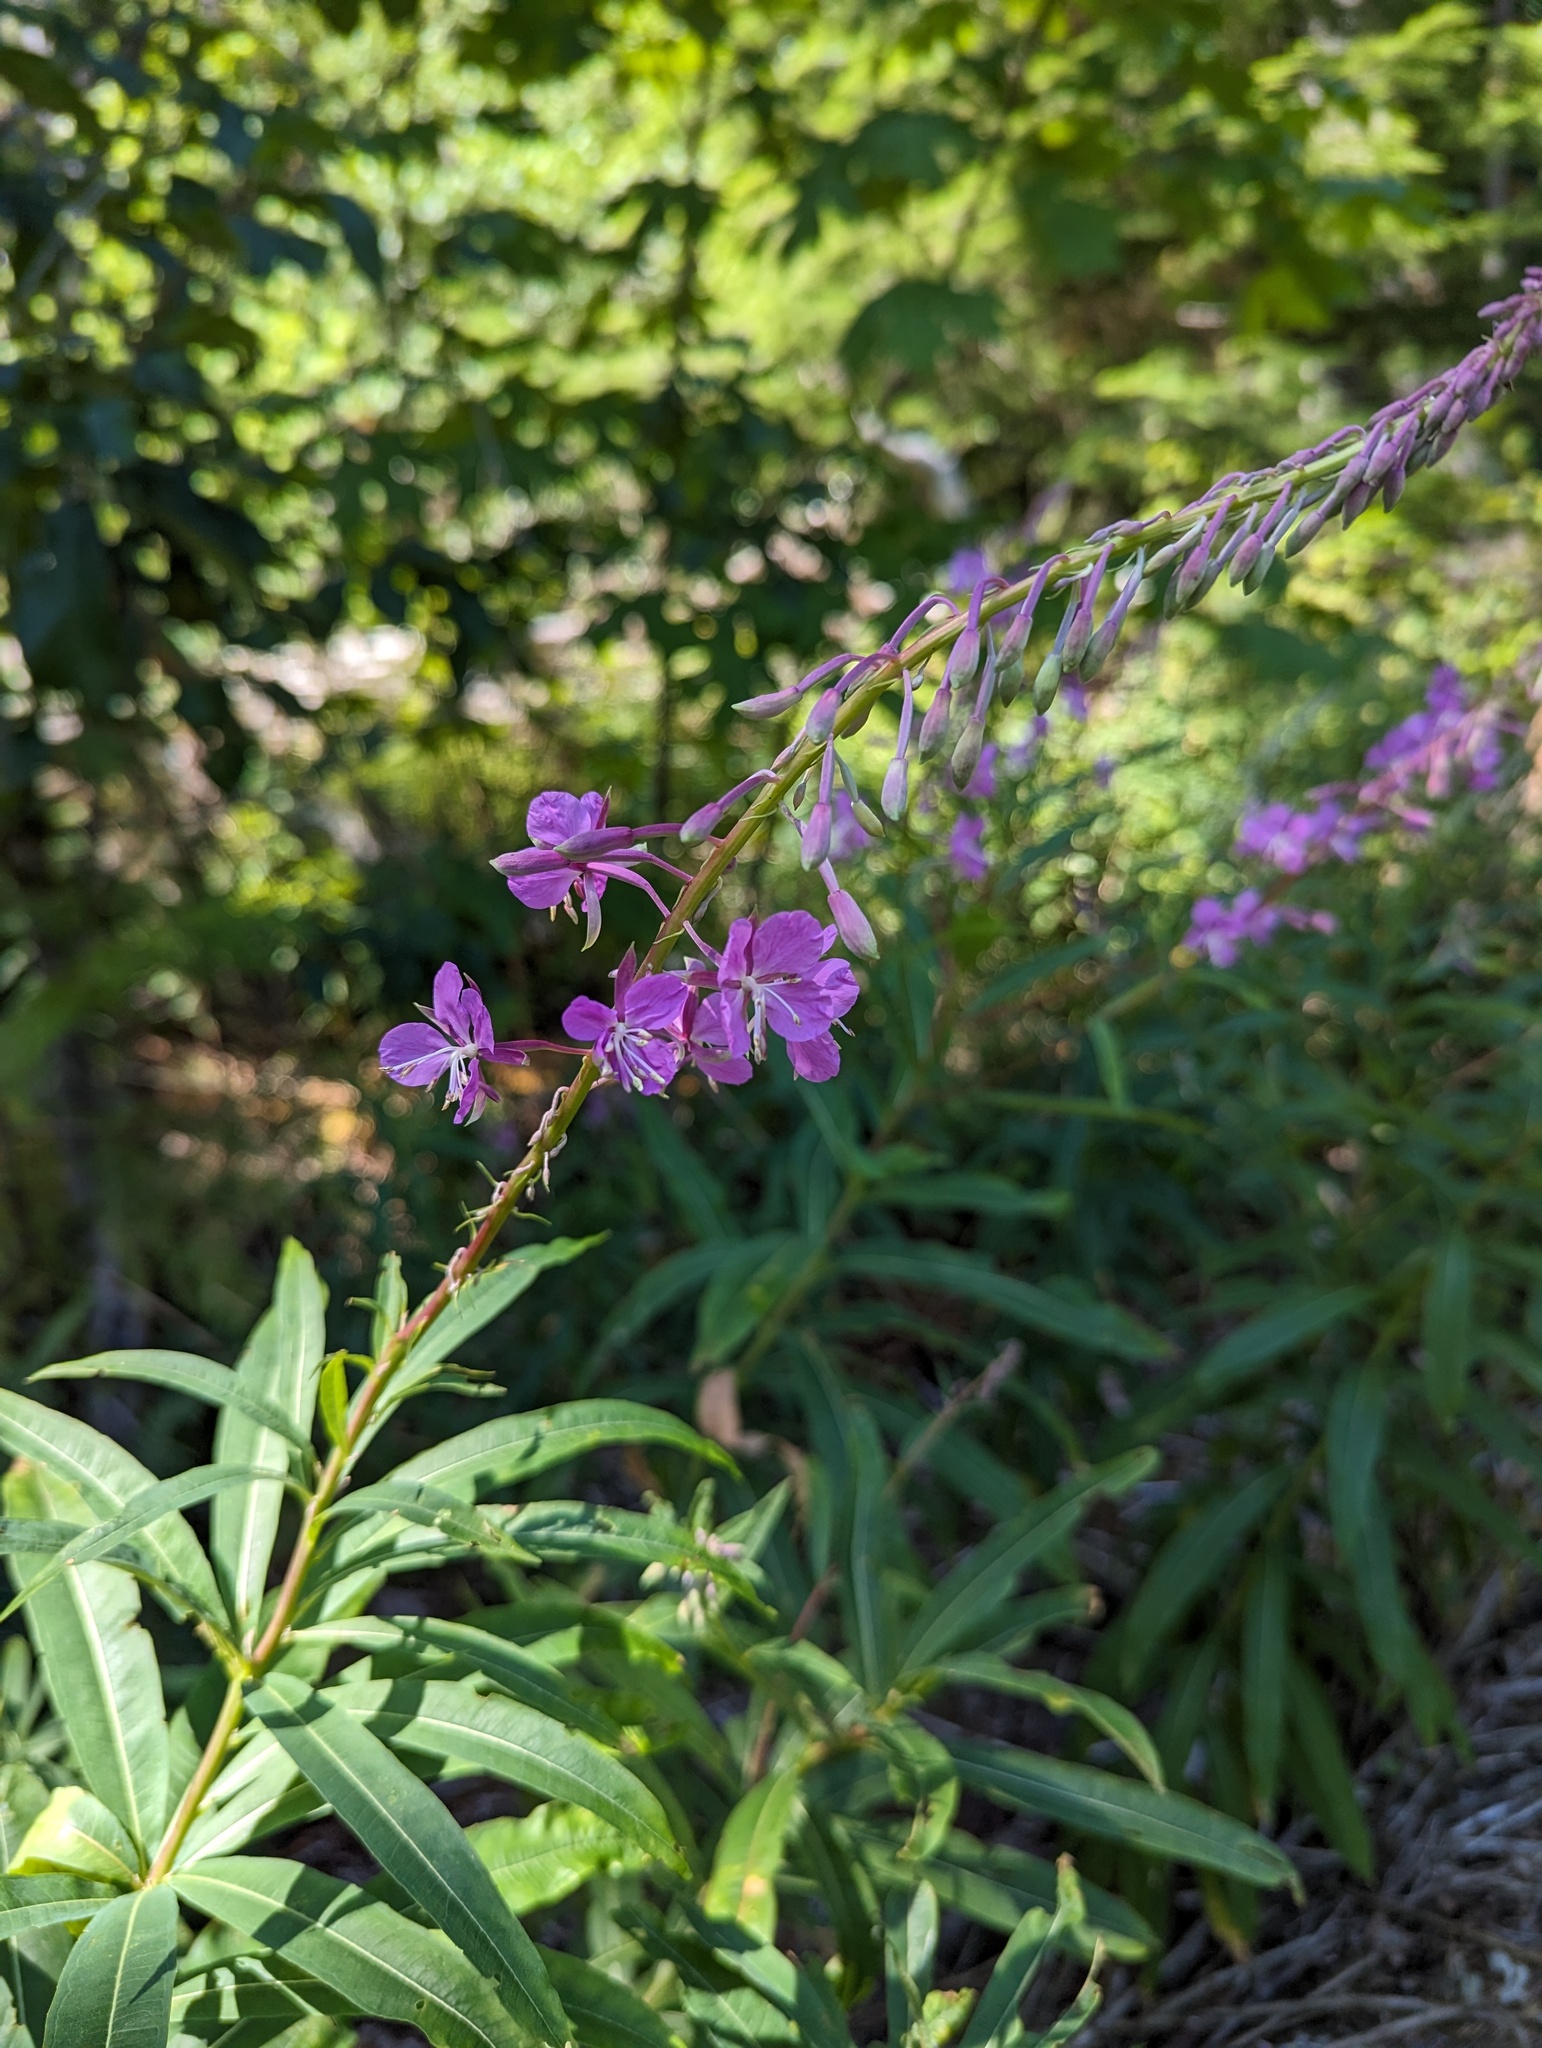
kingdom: Plantae
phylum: Tracheophyta
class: Magnoliopsida
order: Myrtales
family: Onagraceae
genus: Chamaenerion
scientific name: Chamaenerion angustifolium
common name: Fireweed
